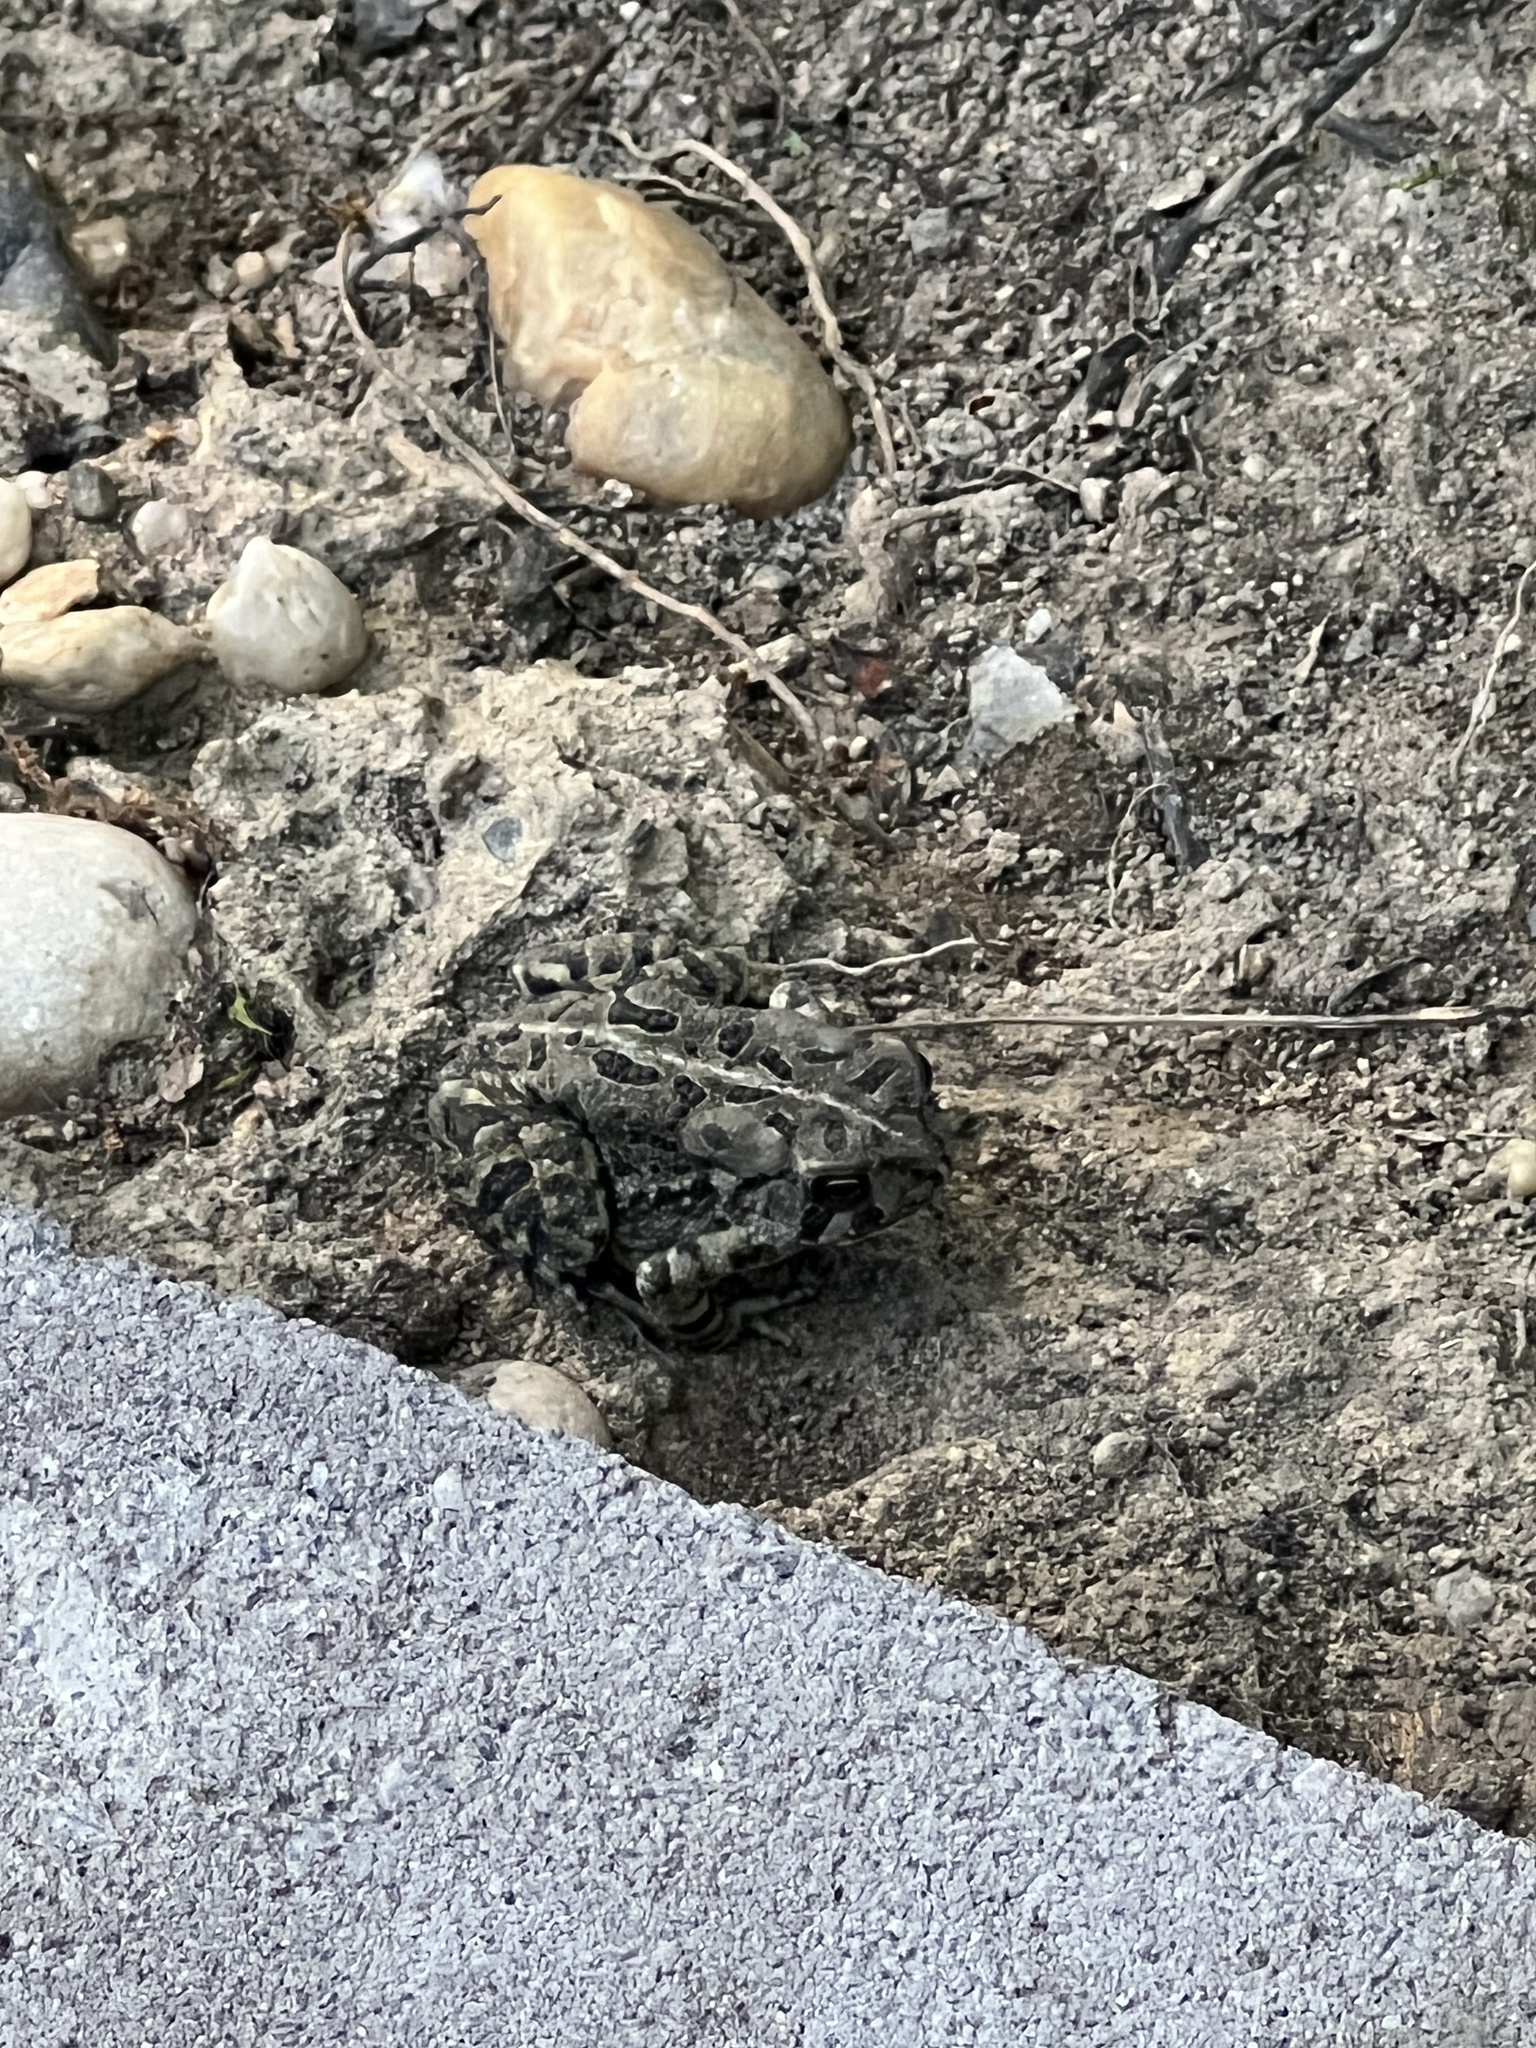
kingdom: Animalia
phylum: Chordata
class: Amphibia
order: Anura
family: Bufonidae
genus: Anaxyrus
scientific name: Anaxyrus fowleri
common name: Fowler's toad
